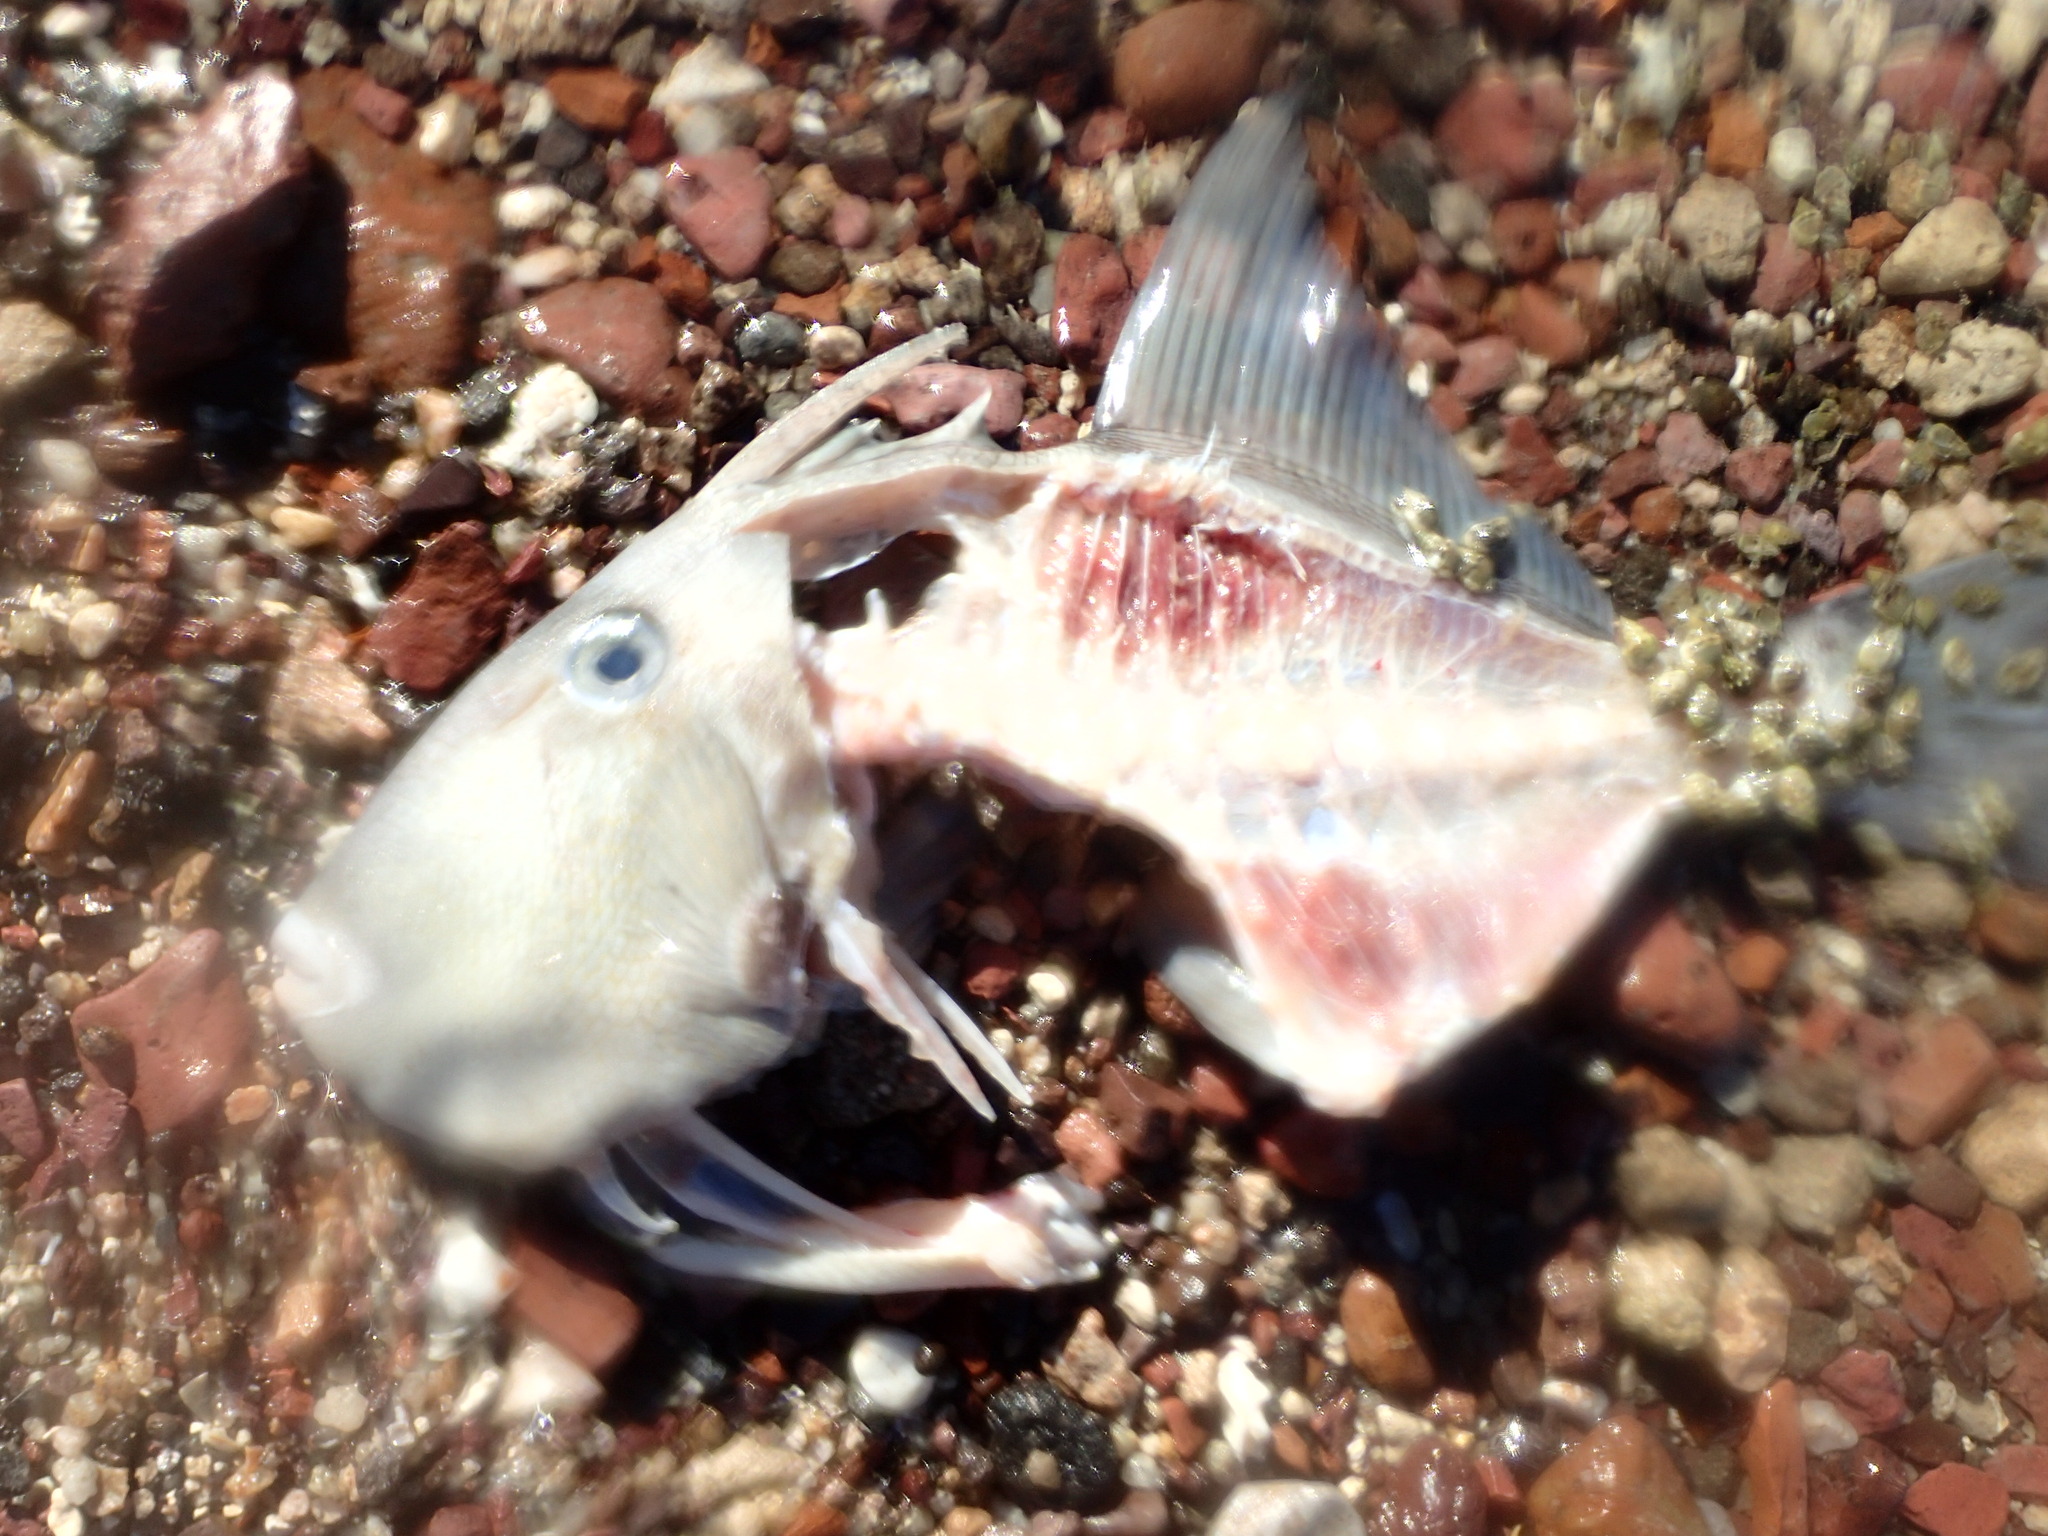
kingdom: Animalia
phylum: Chordata
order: Tetraodontiformes
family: Balistidae
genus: Balistes
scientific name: Balistes polylepis
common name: Finescale triggerfish
